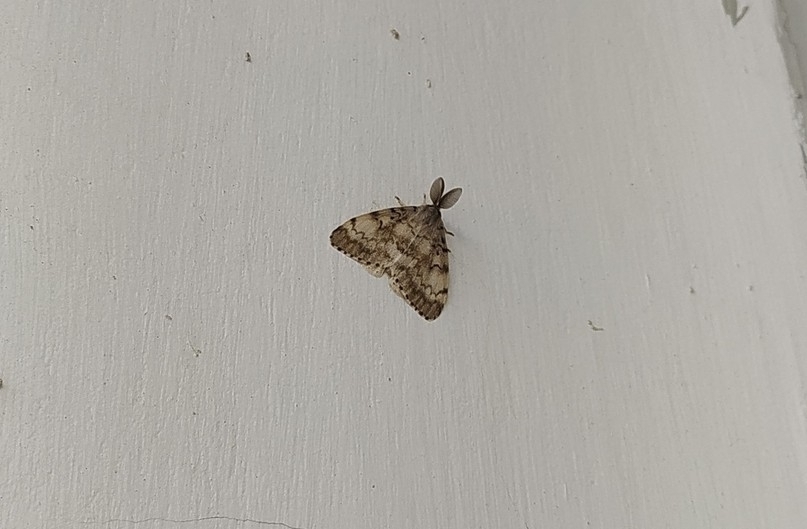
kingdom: Animalia
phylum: Arthropoda
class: Insecta
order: Lepidoptera
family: Erebidae
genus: Lymantria
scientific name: Lymantria dispar
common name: Gypsy moth
